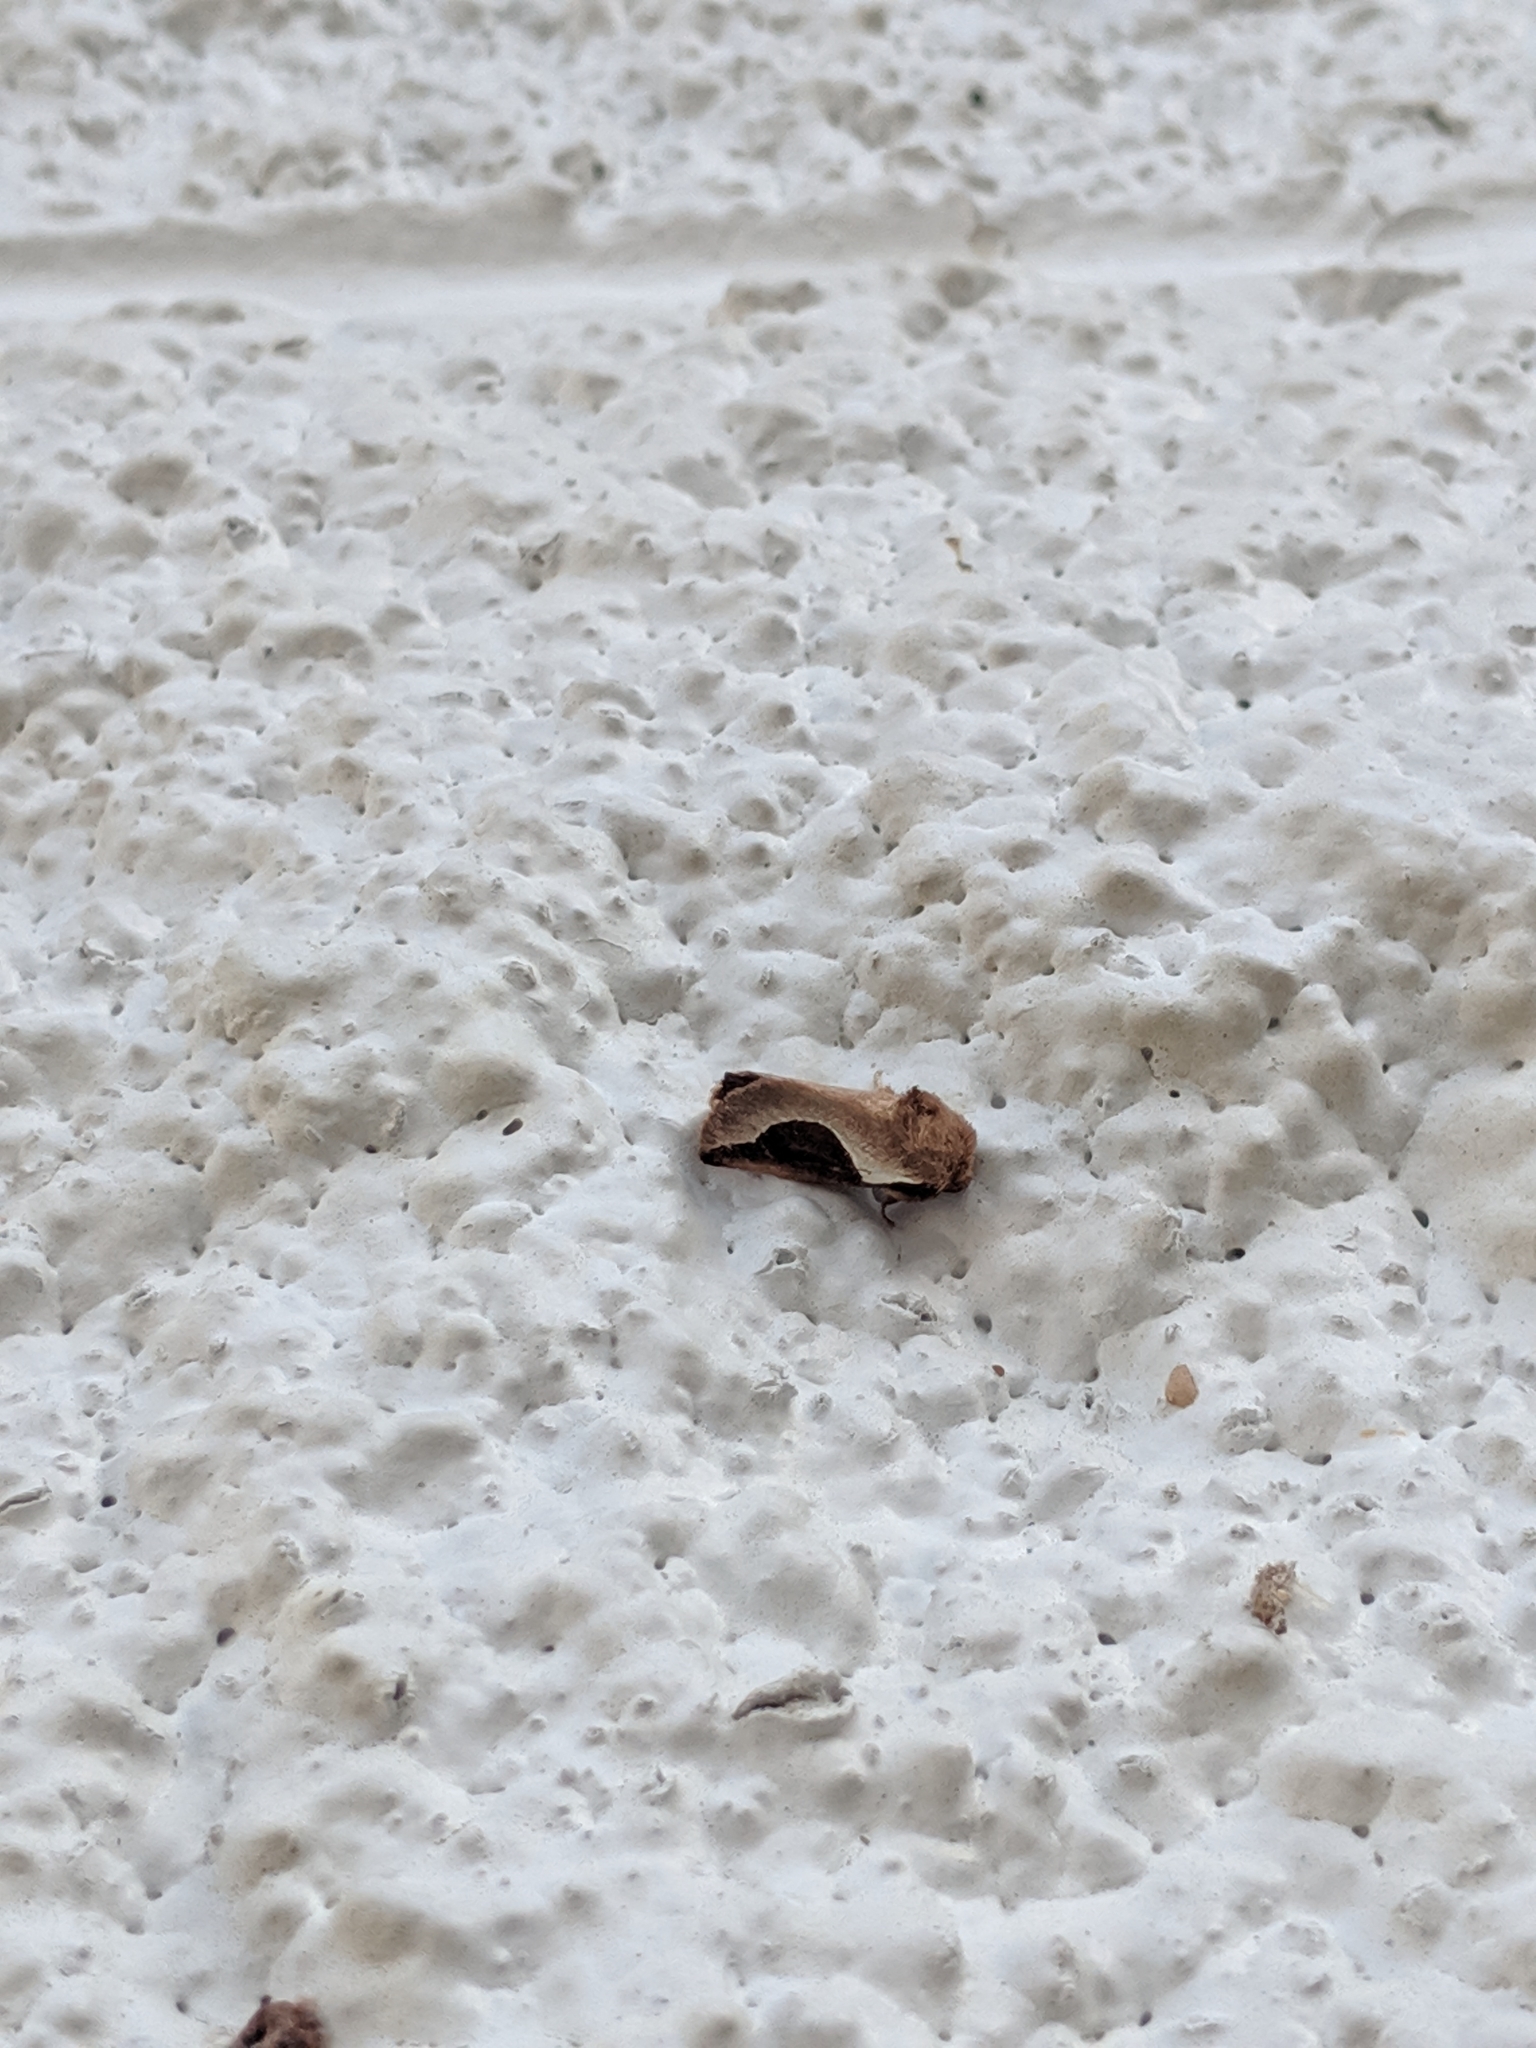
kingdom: Animalia
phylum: Arthropoda
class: Insecta
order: Lepidoptera
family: Limacodidae
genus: Prolimacodes
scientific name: Prolimacodes badia
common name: Skiff moth
